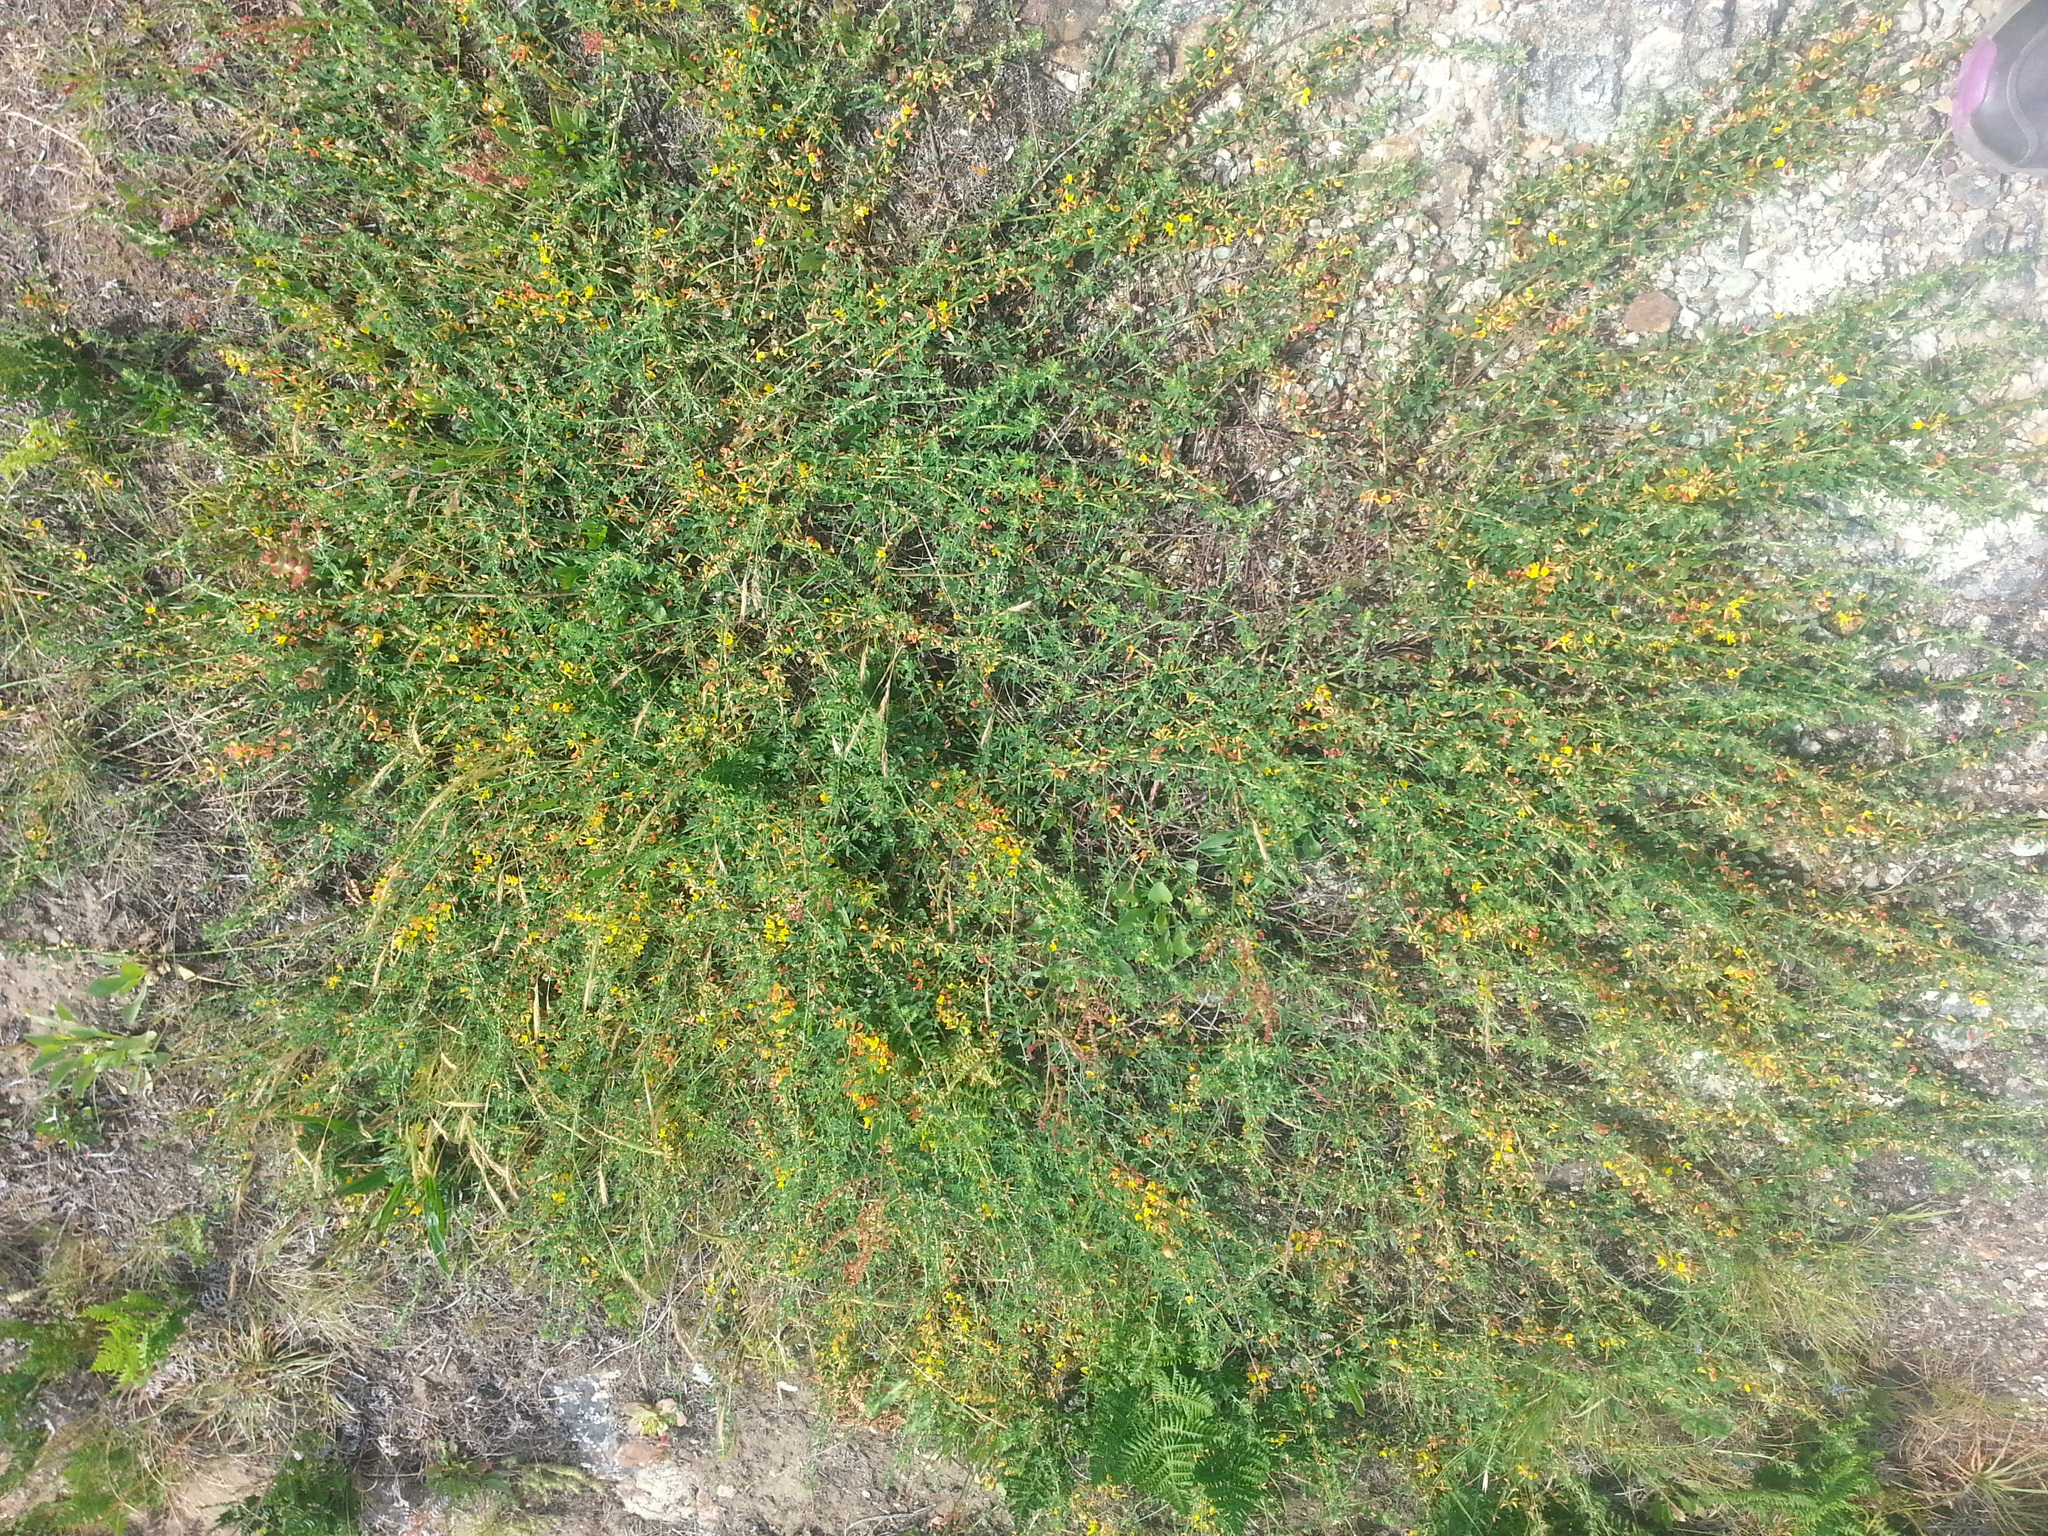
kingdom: Plantae
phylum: Tracheophyta
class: Magnoliopsida
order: Fabales
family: Fabaceae
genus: Acmispon
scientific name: Acmispon glaber
